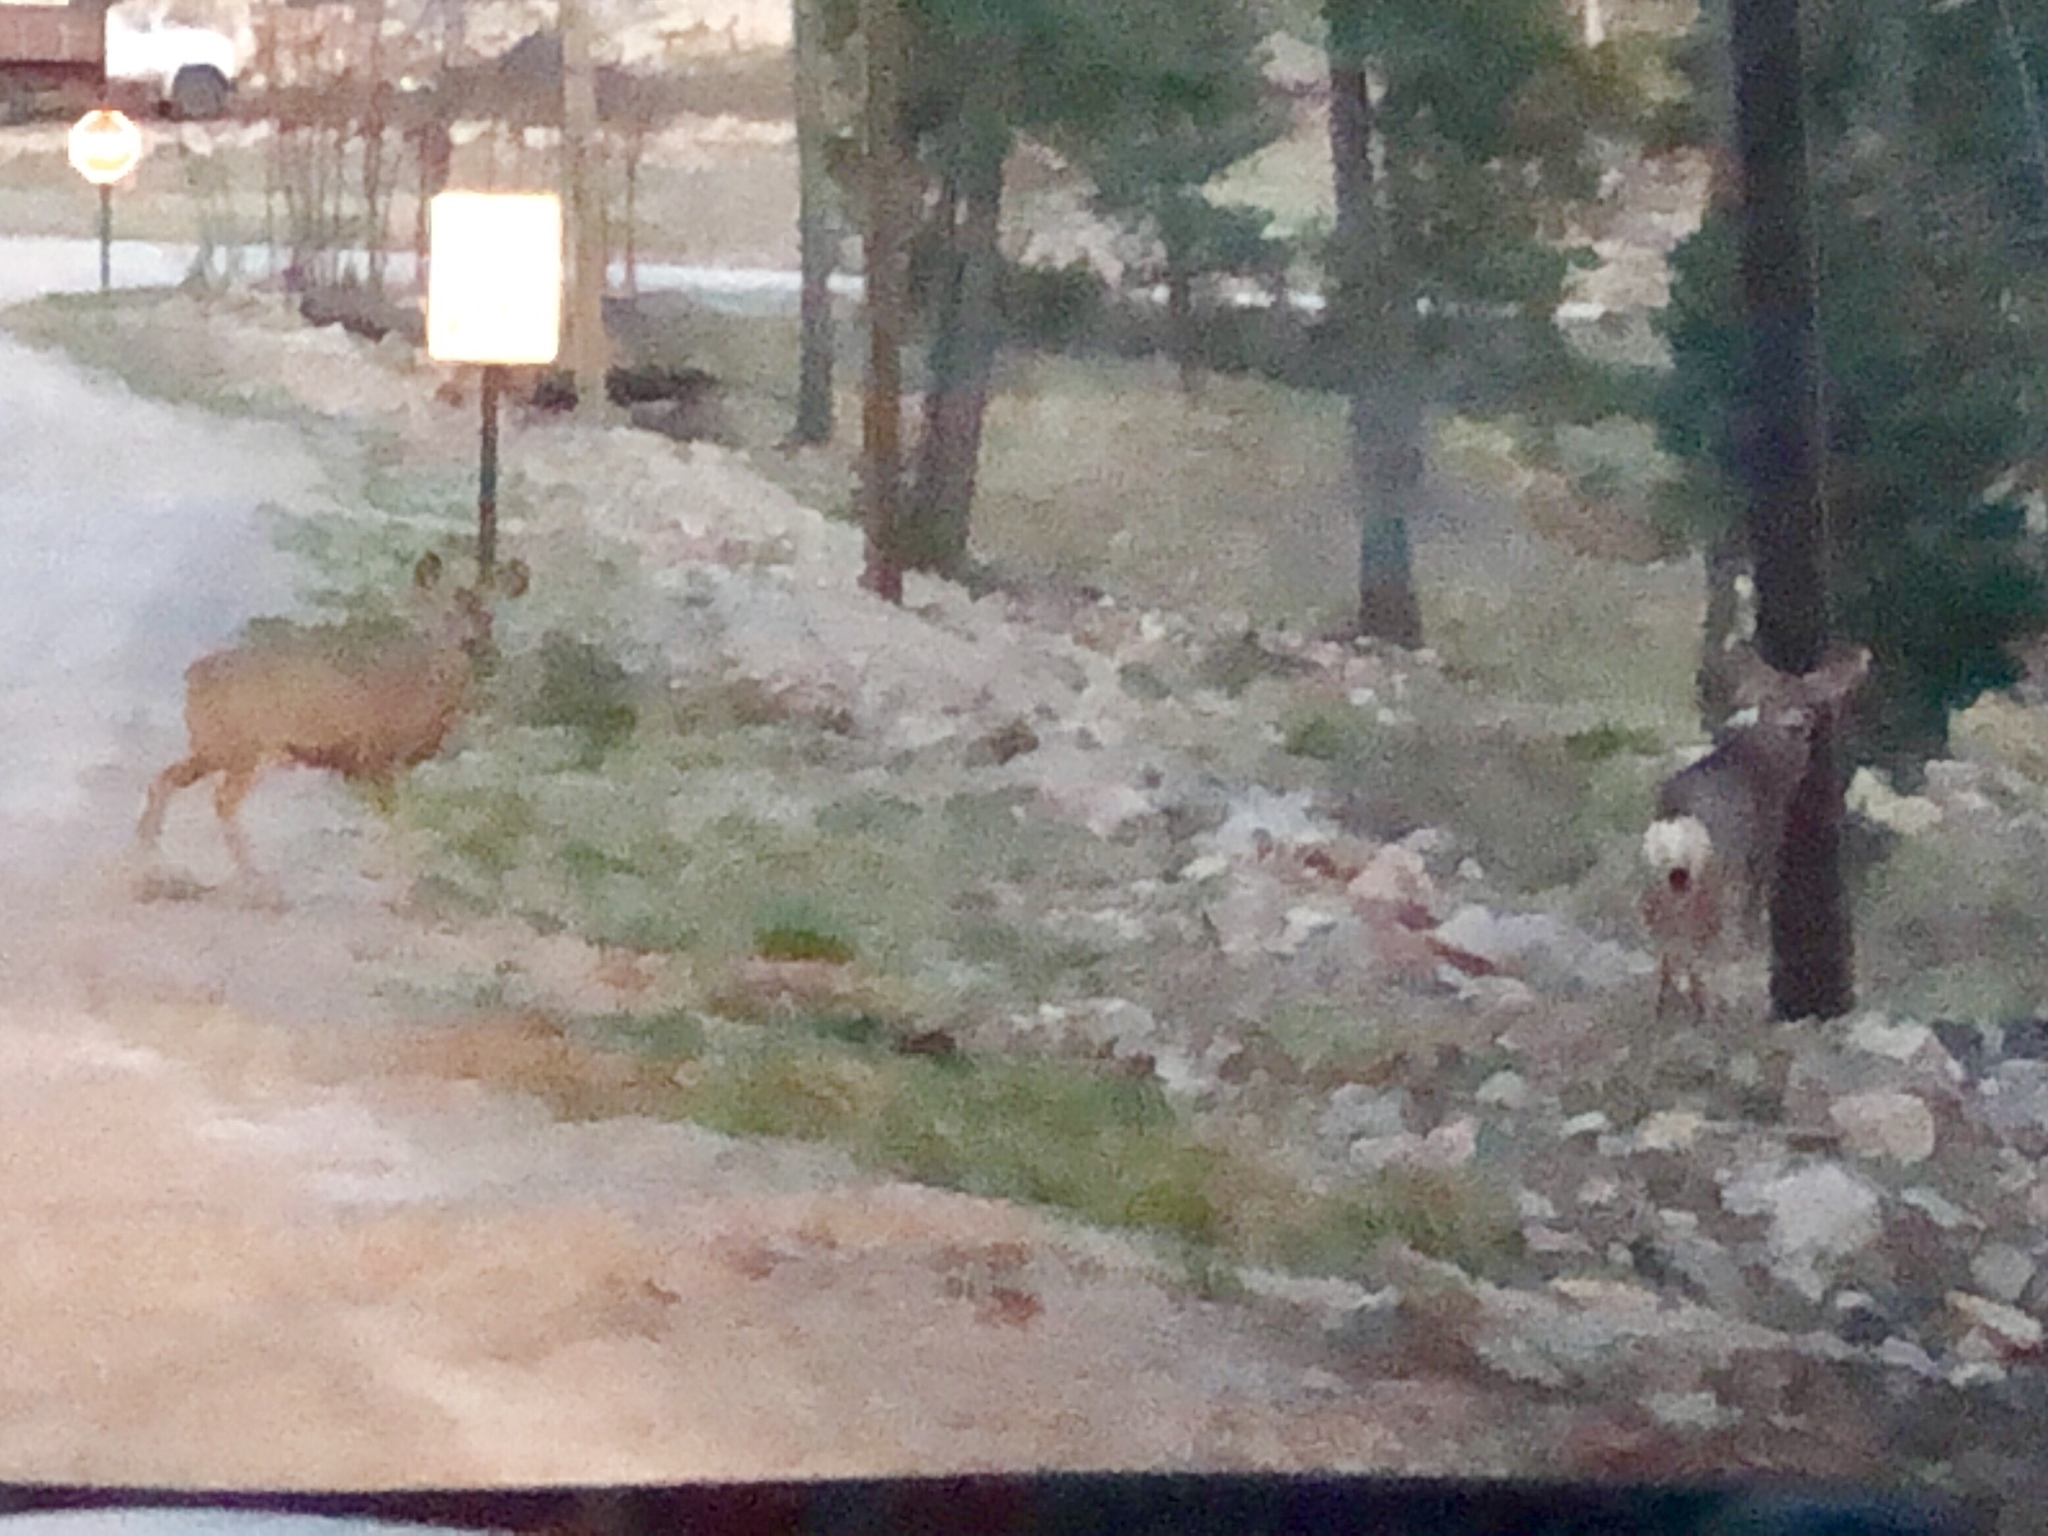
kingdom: Animalia
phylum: Chordata
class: Mammalia
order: Artiodactyla
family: Cervidae
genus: Odocoileus
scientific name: Odocoileus hemionus
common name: Mule deer
